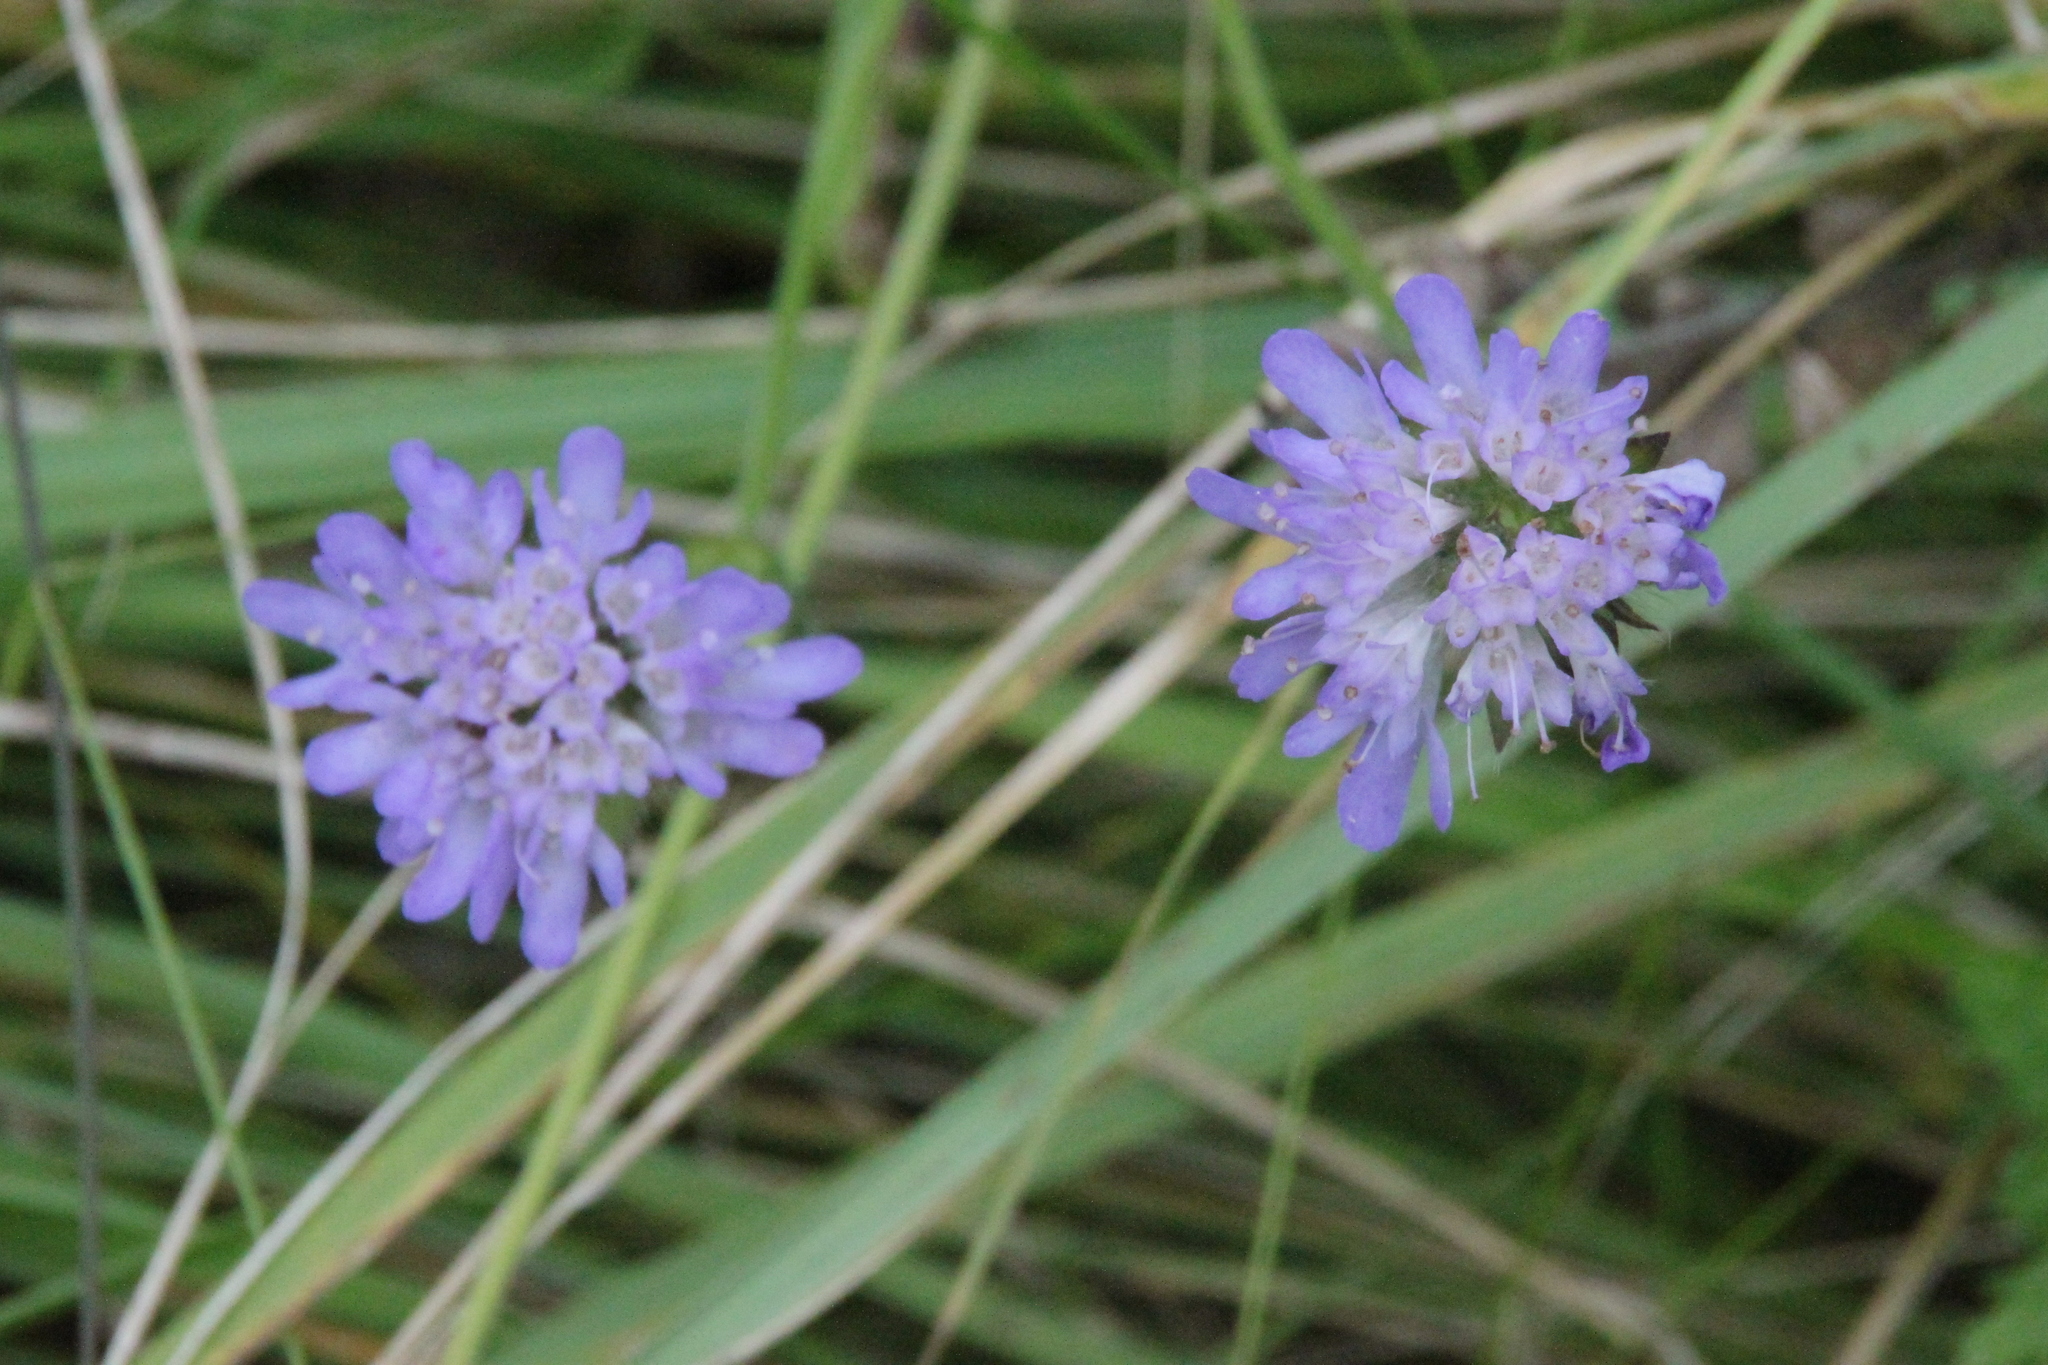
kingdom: Plantae
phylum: Tracheophyta
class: Magnoliopsida
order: Dipsacales
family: Caprifoliaceae
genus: Knautia
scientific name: Knautia arvensis
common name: Field scabiosa
